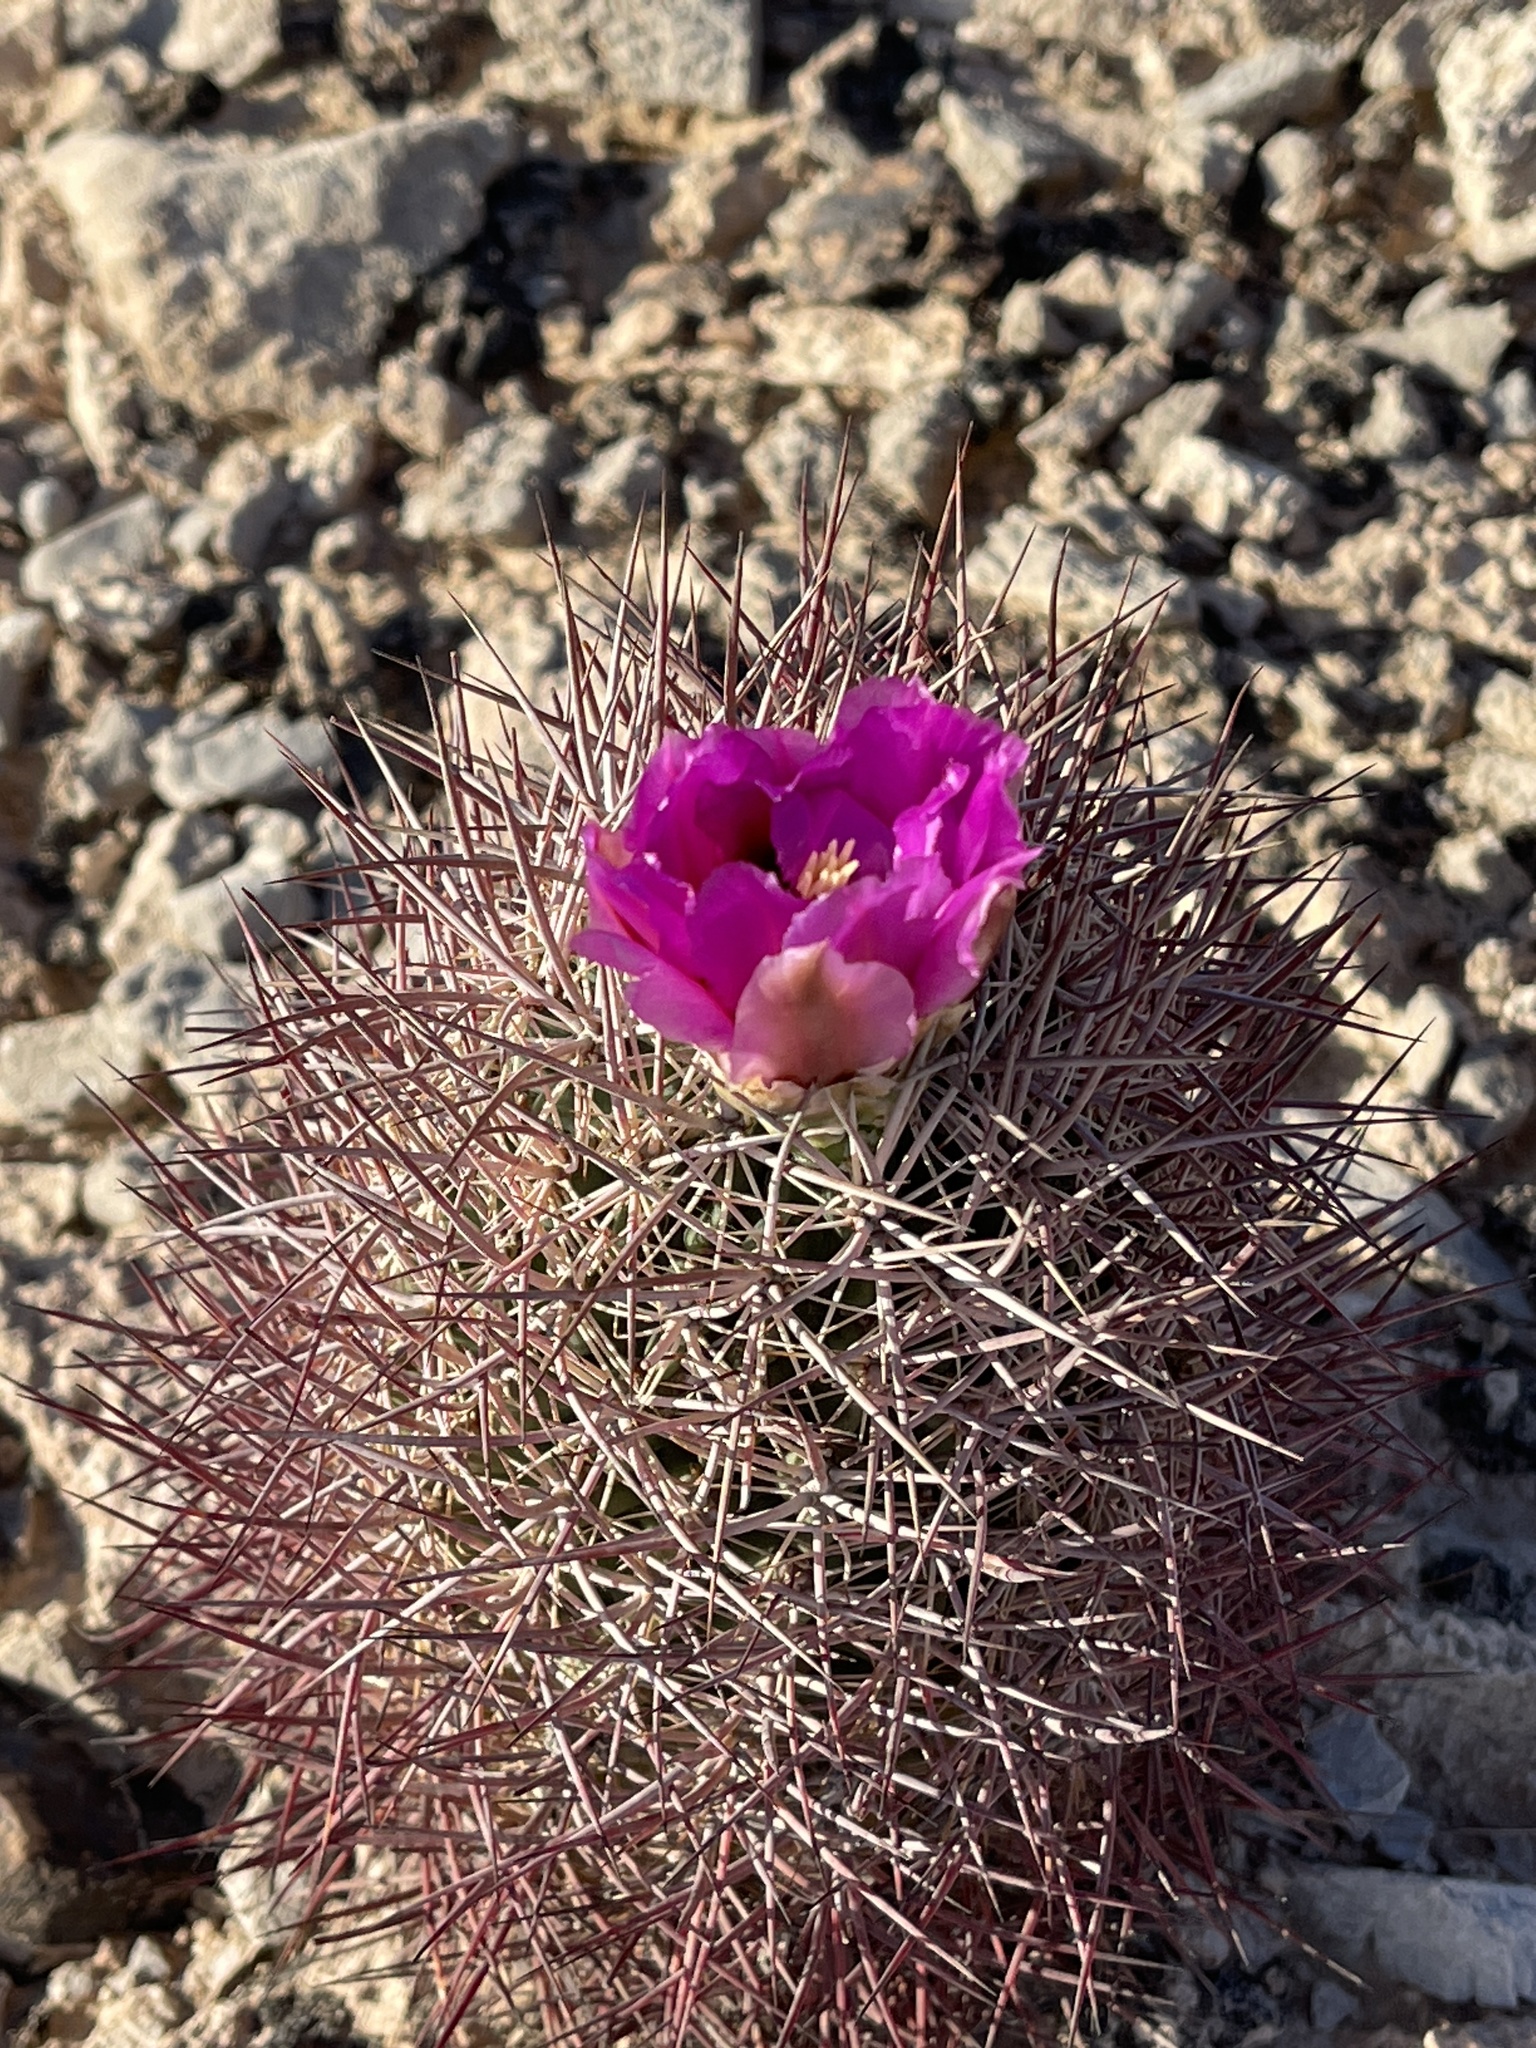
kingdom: Plantae
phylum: Tracheophyta
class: Magnoliopsida
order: Caryophyllales
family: Cactaceae
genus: Sclerocactus
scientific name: Sclerocactus johnsonii
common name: Eight-spine fishhook cactus
